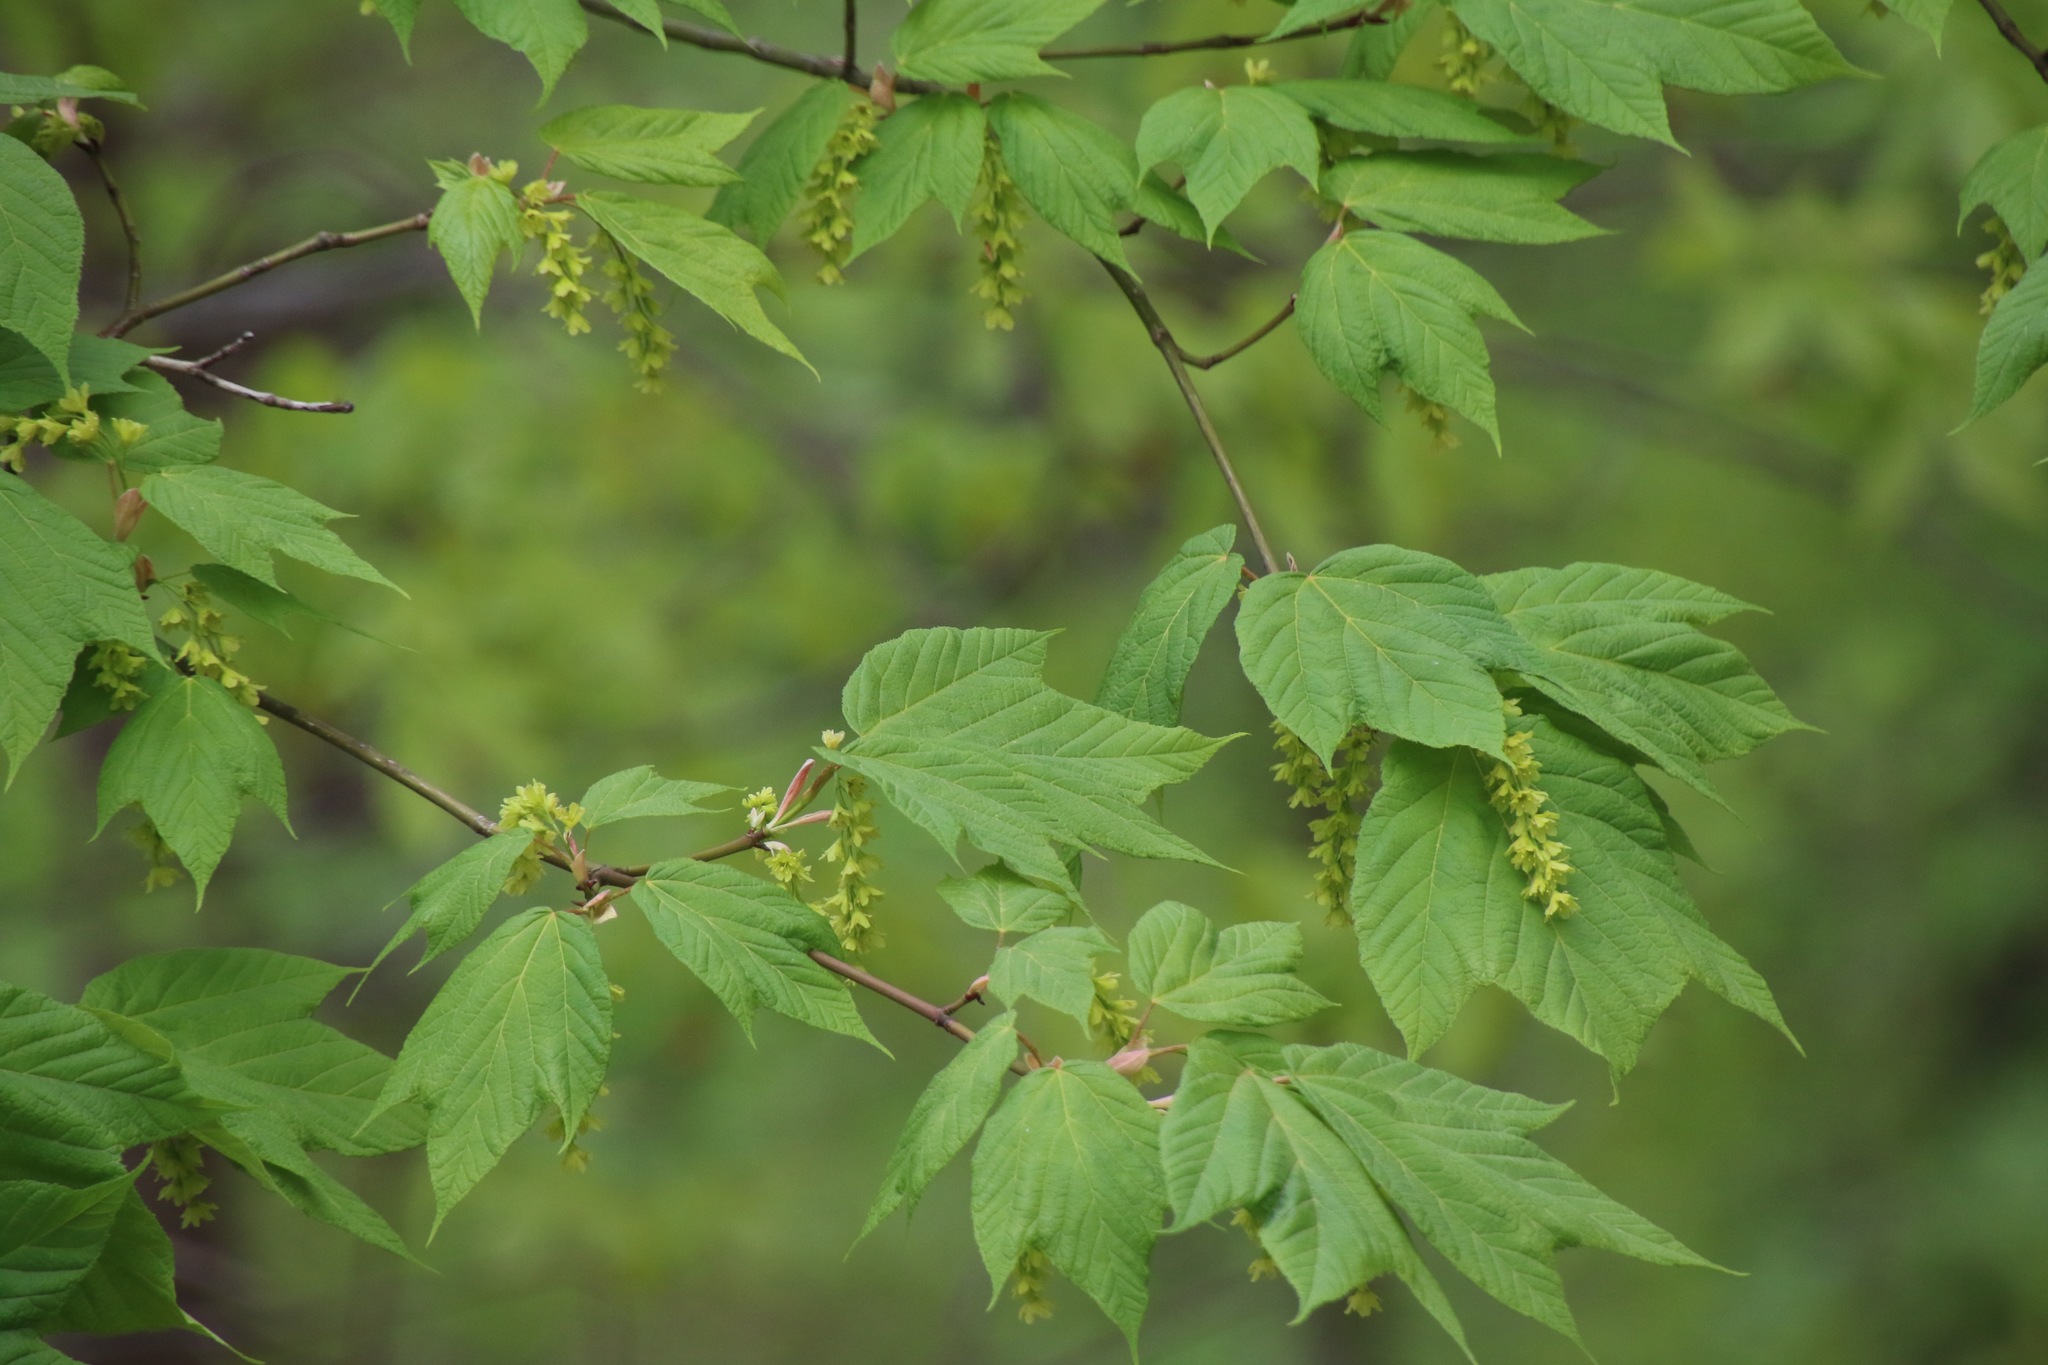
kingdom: Plantae
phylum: Tracheophyta
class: Magnoliopsida
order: Sapindales
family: Sapindaceae
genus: Acer
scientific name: Acer pensylvanicum
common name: Moosewood
